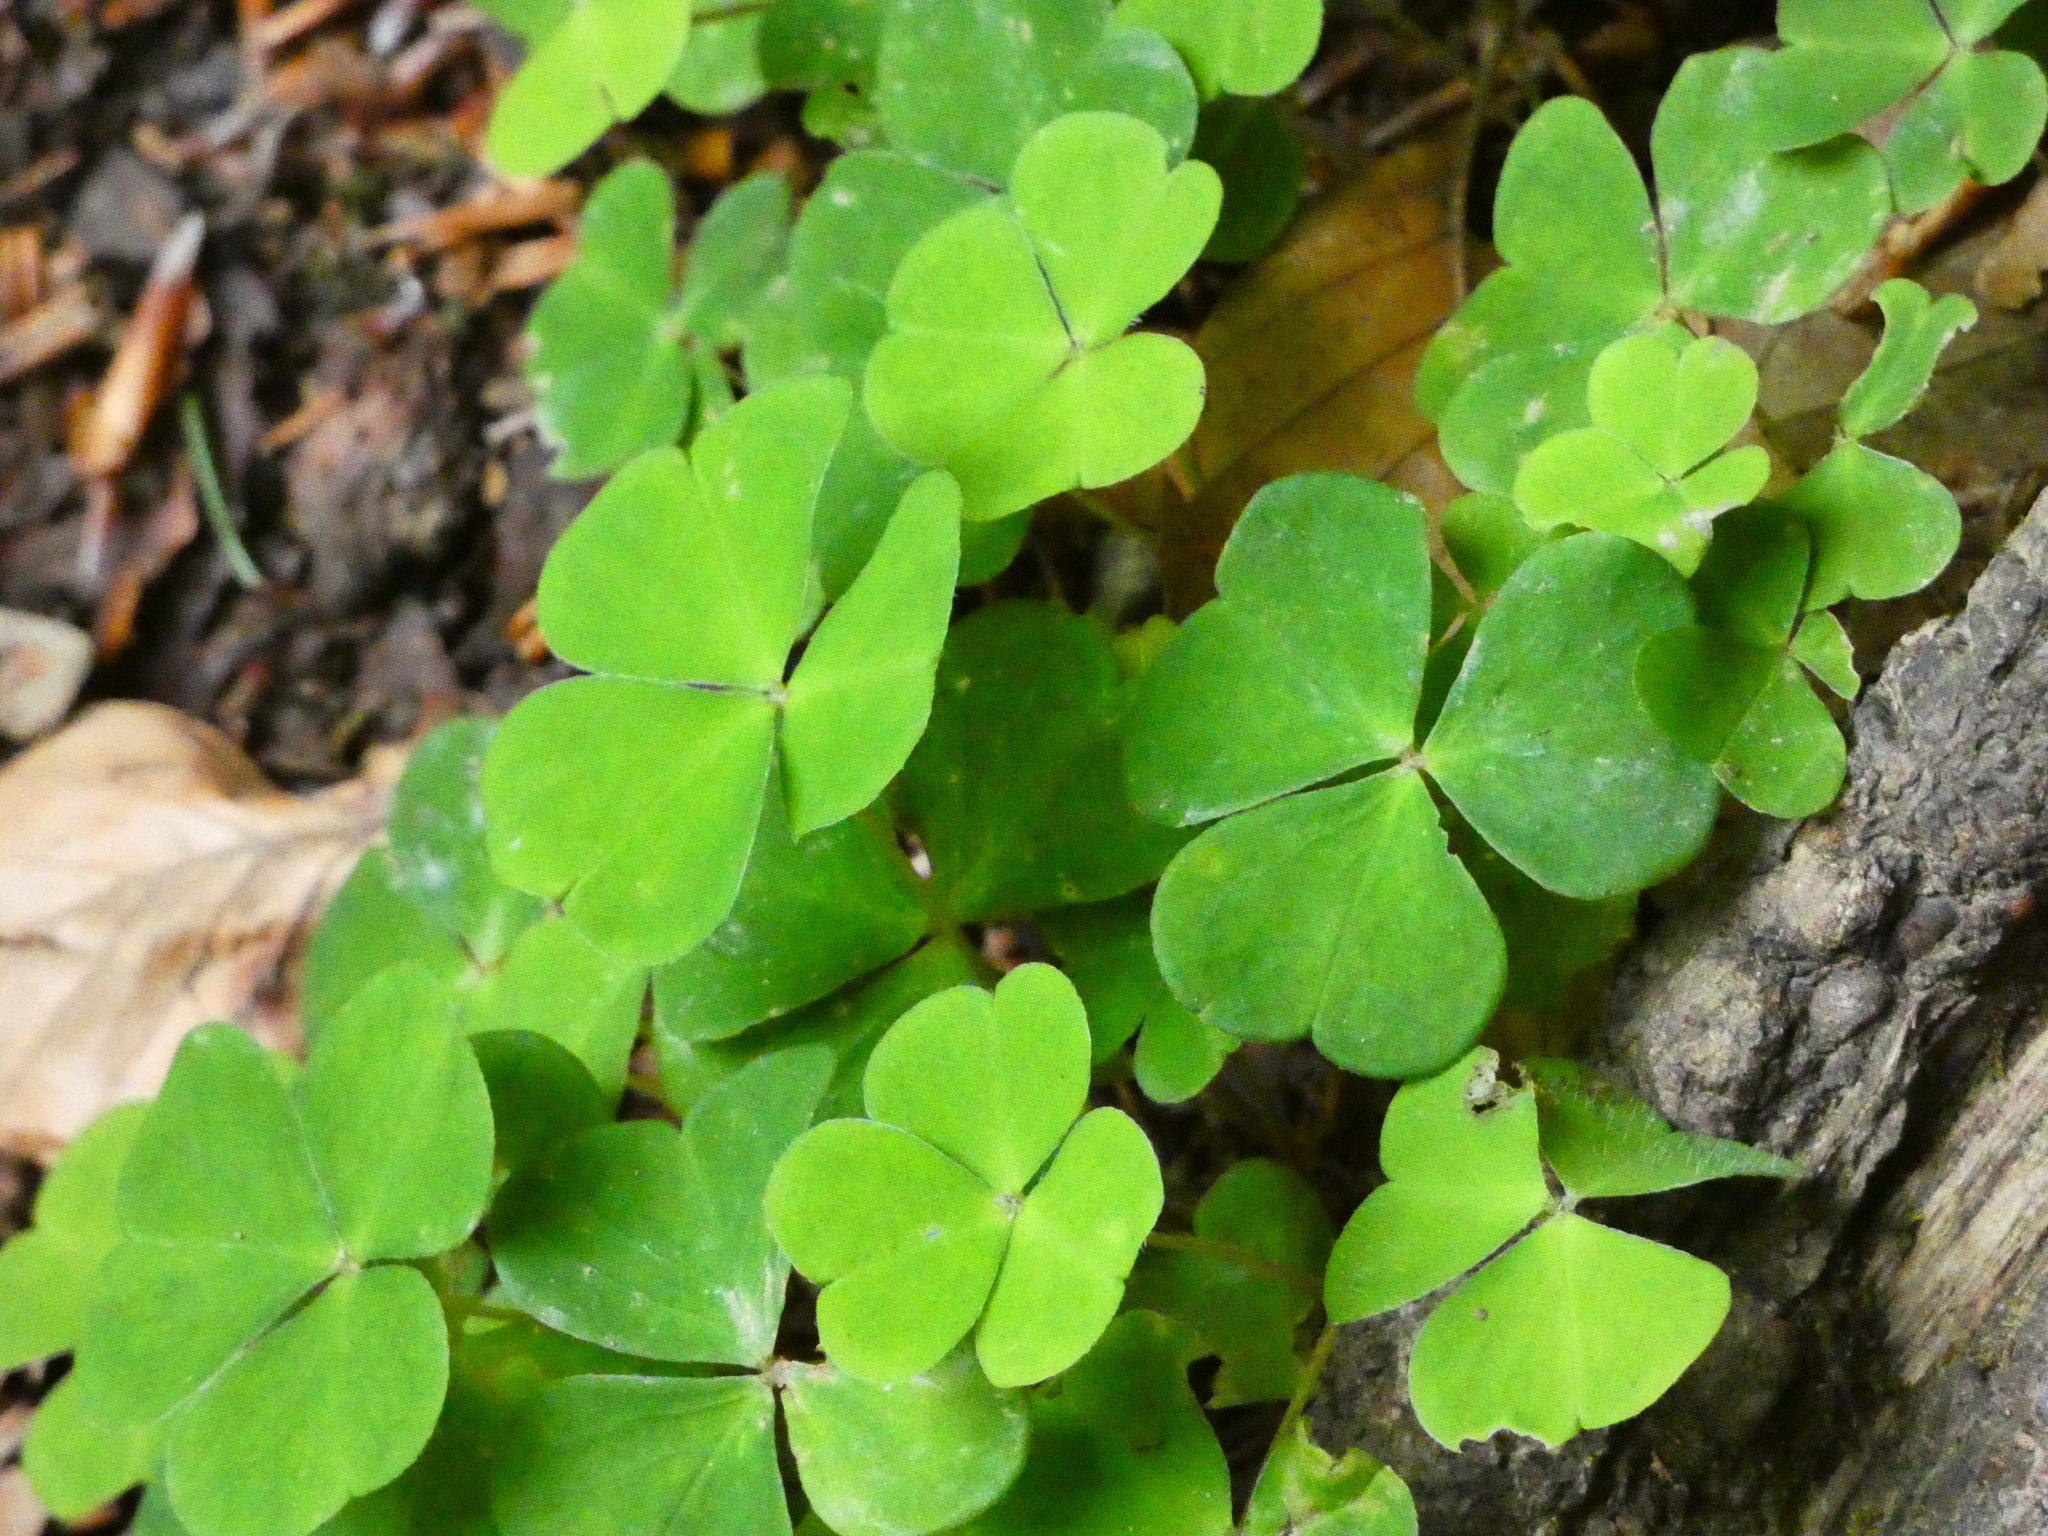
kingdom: Plantae
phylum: Tracheophyta
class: Magnoliopsida
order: Oxalidales
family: Oxalidaceae
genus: Oxalis
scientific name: Oxalis acetosella
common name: Wood-sorrel
